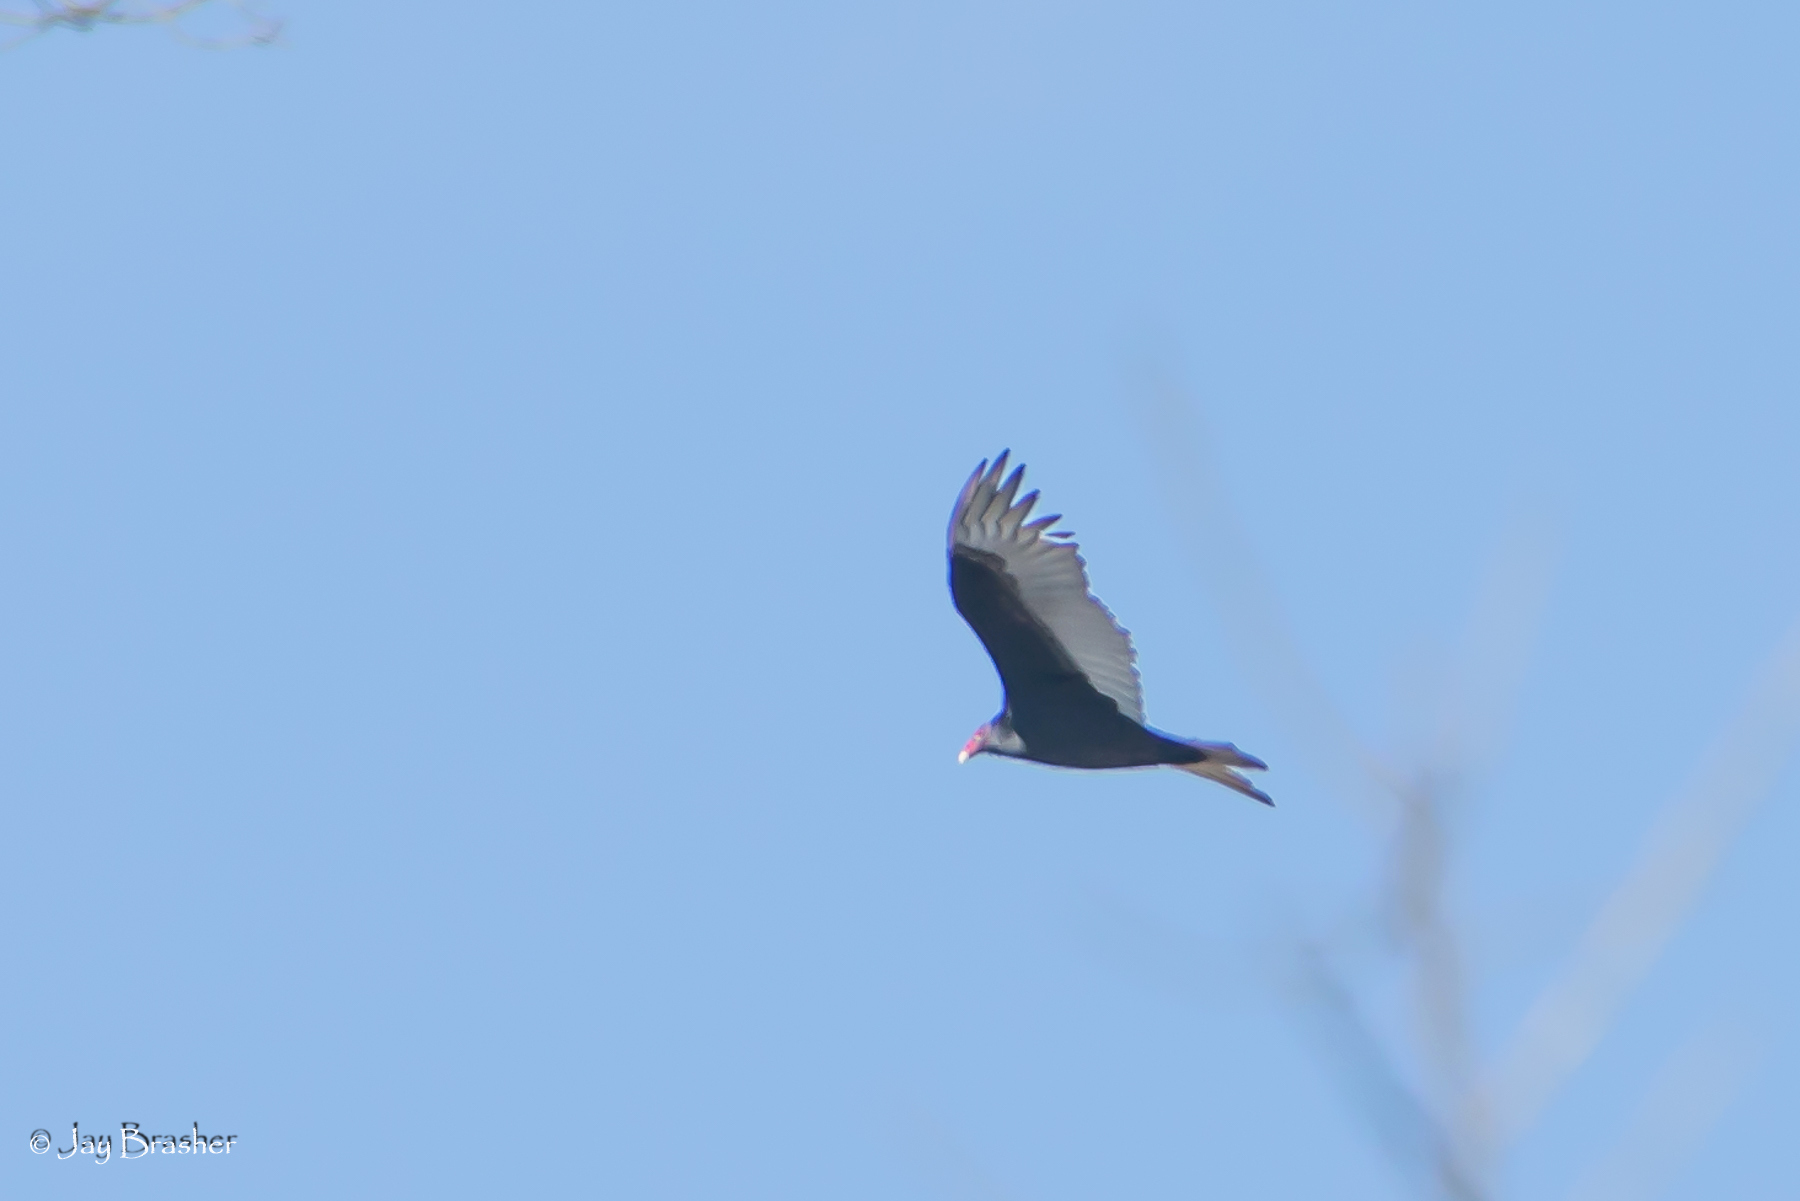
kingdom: Animalia
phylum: Chordata
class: Aves
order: Accipitriformes
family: Cathartidae
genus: Cathartes
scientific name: Cathartes aura
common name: Turkey vulture
